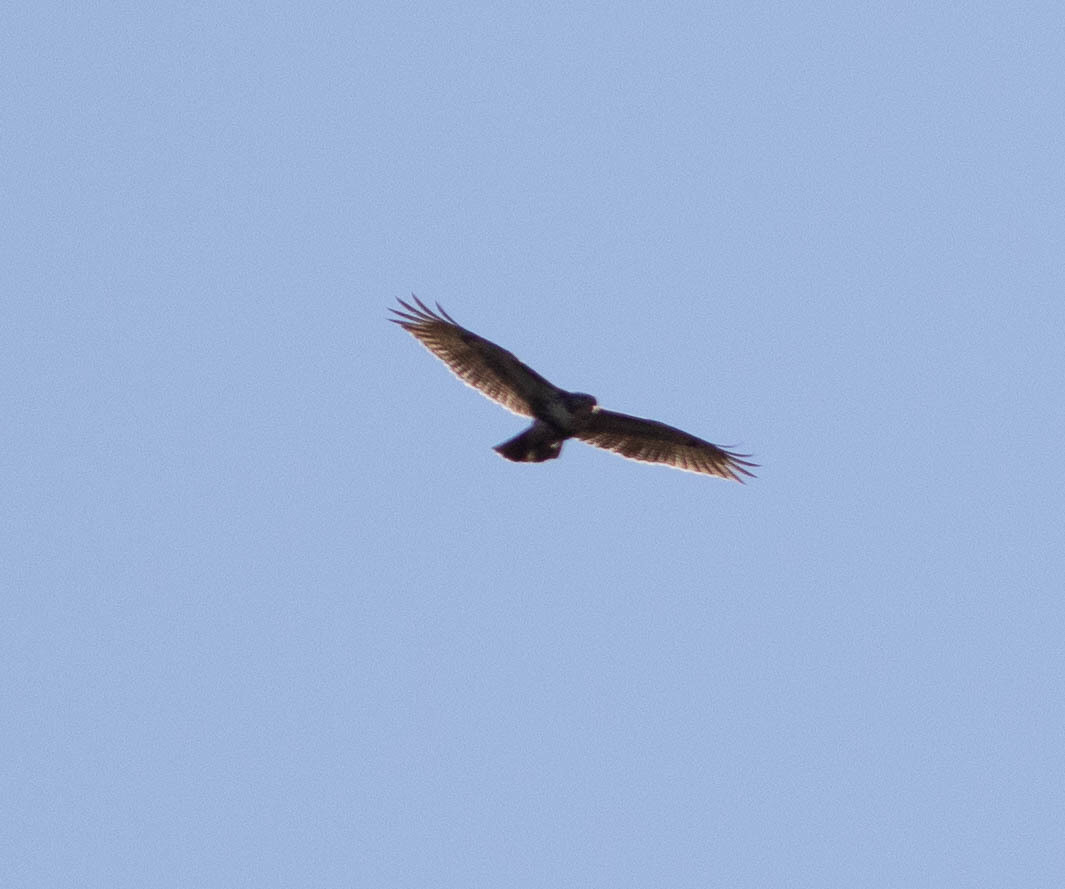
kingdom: Animalia
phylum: Chordata
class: Aves
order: Accipitriformes
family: Accipitridae
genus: Buteo
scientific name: Buteo jamaicensis
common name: Red-tailed hawk
